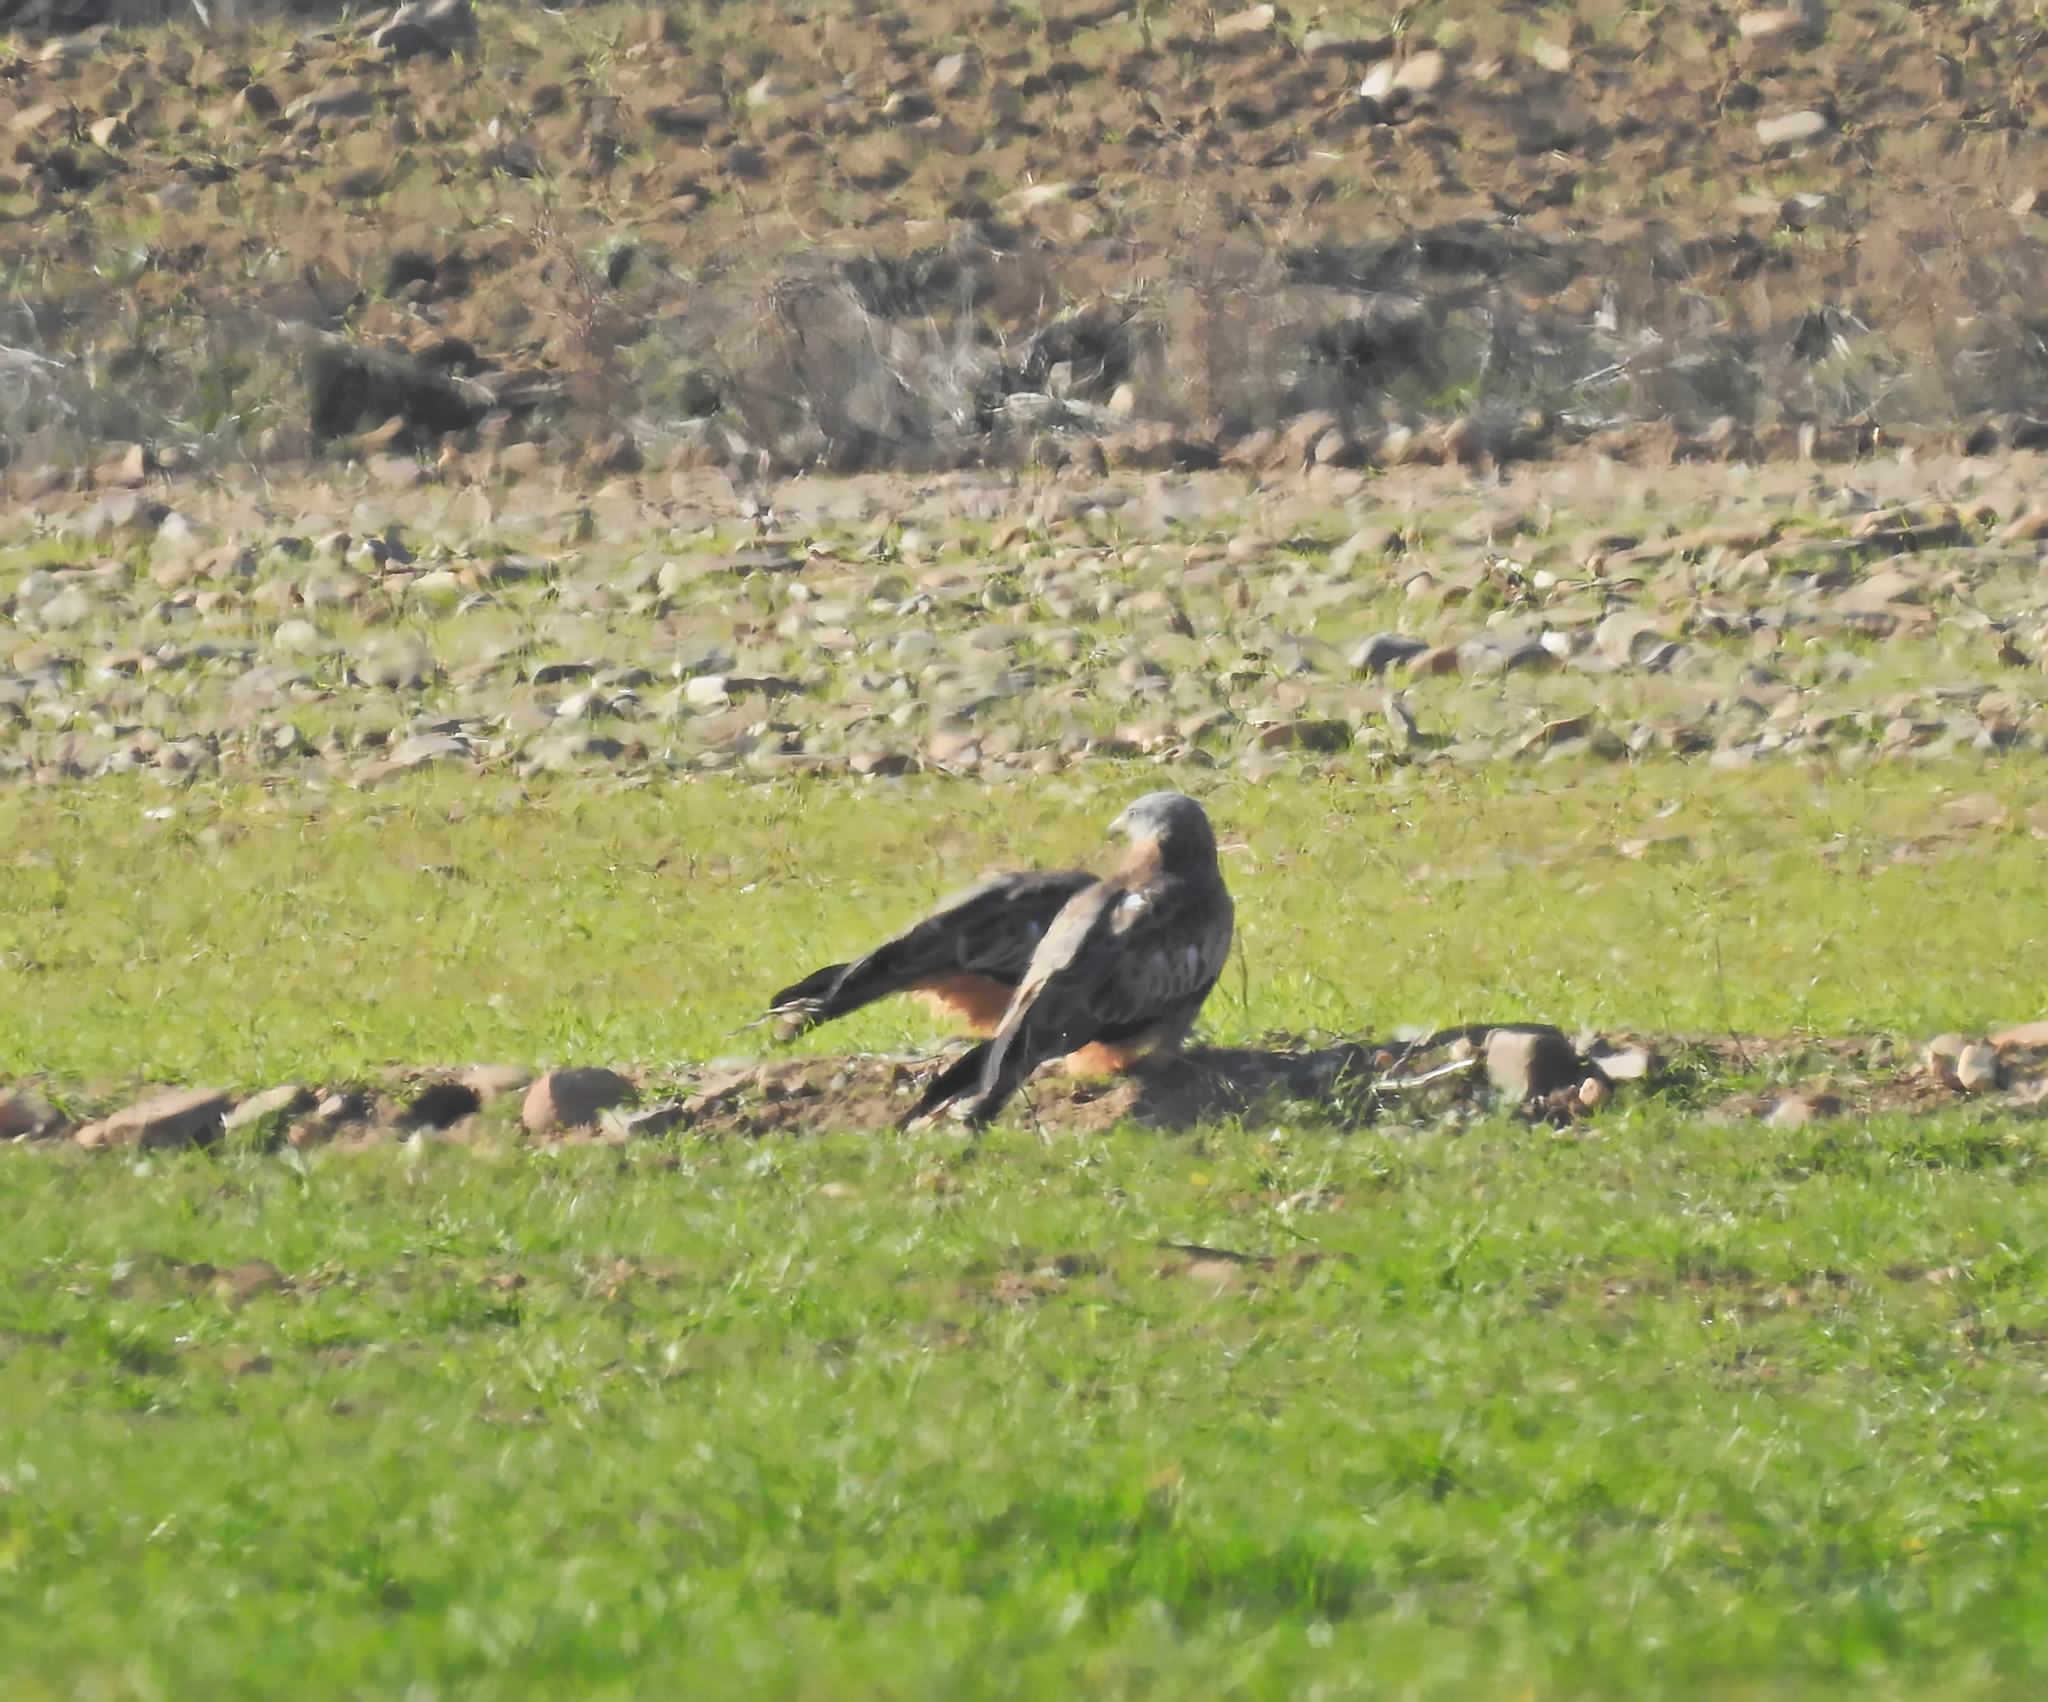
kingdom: Animalia
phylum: Chordata
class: Aves
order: Accipitriformes
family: Accipitridae
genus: Milvus
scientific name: Milvus milvus
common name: Red kite
